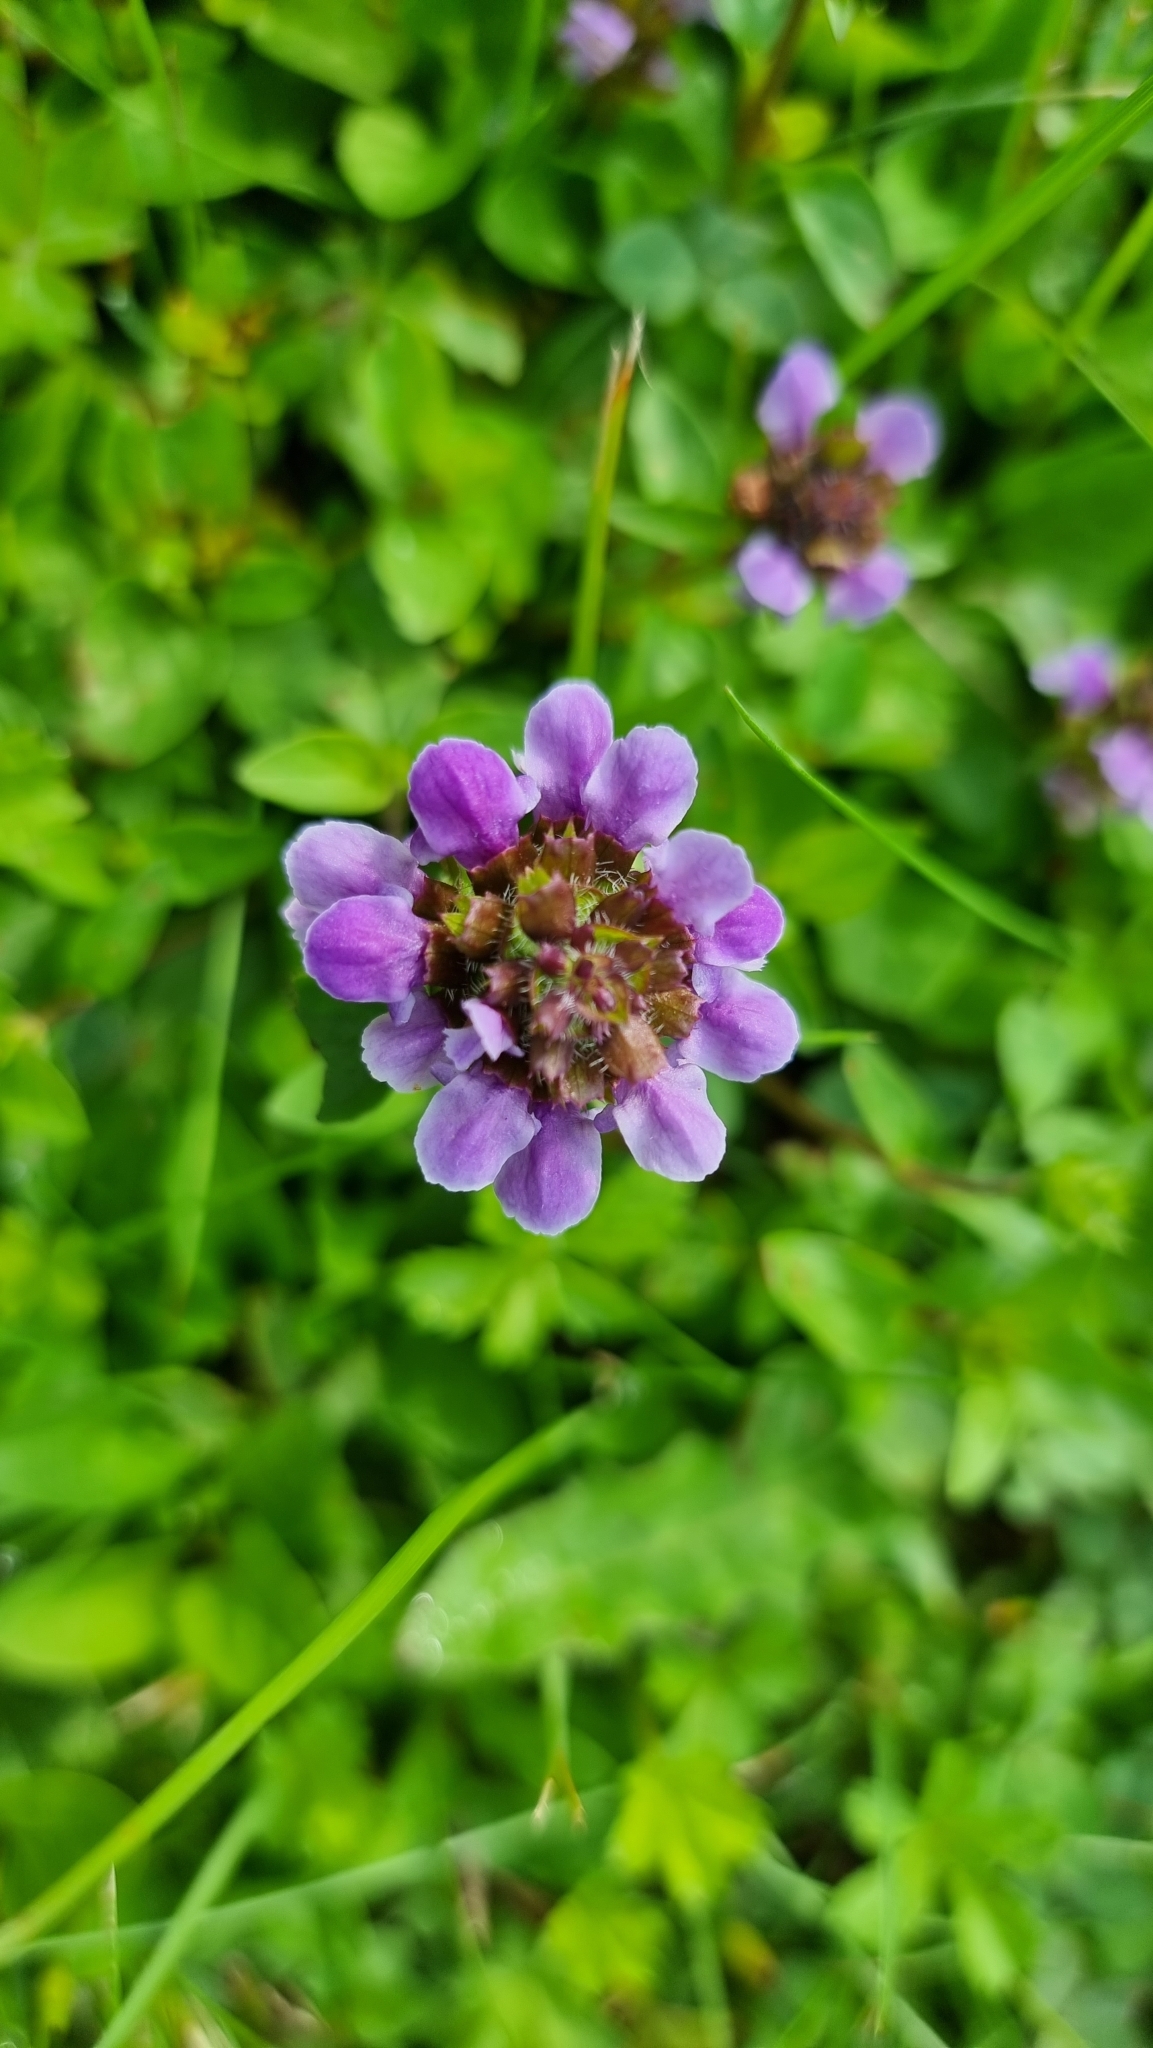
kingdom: Plantae
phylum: Tracheophyta
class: Magnoliopsida
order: Lamiales
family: Lamiaceae
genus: Prunella
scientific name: Prunella vulgaris
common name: Heal-all
